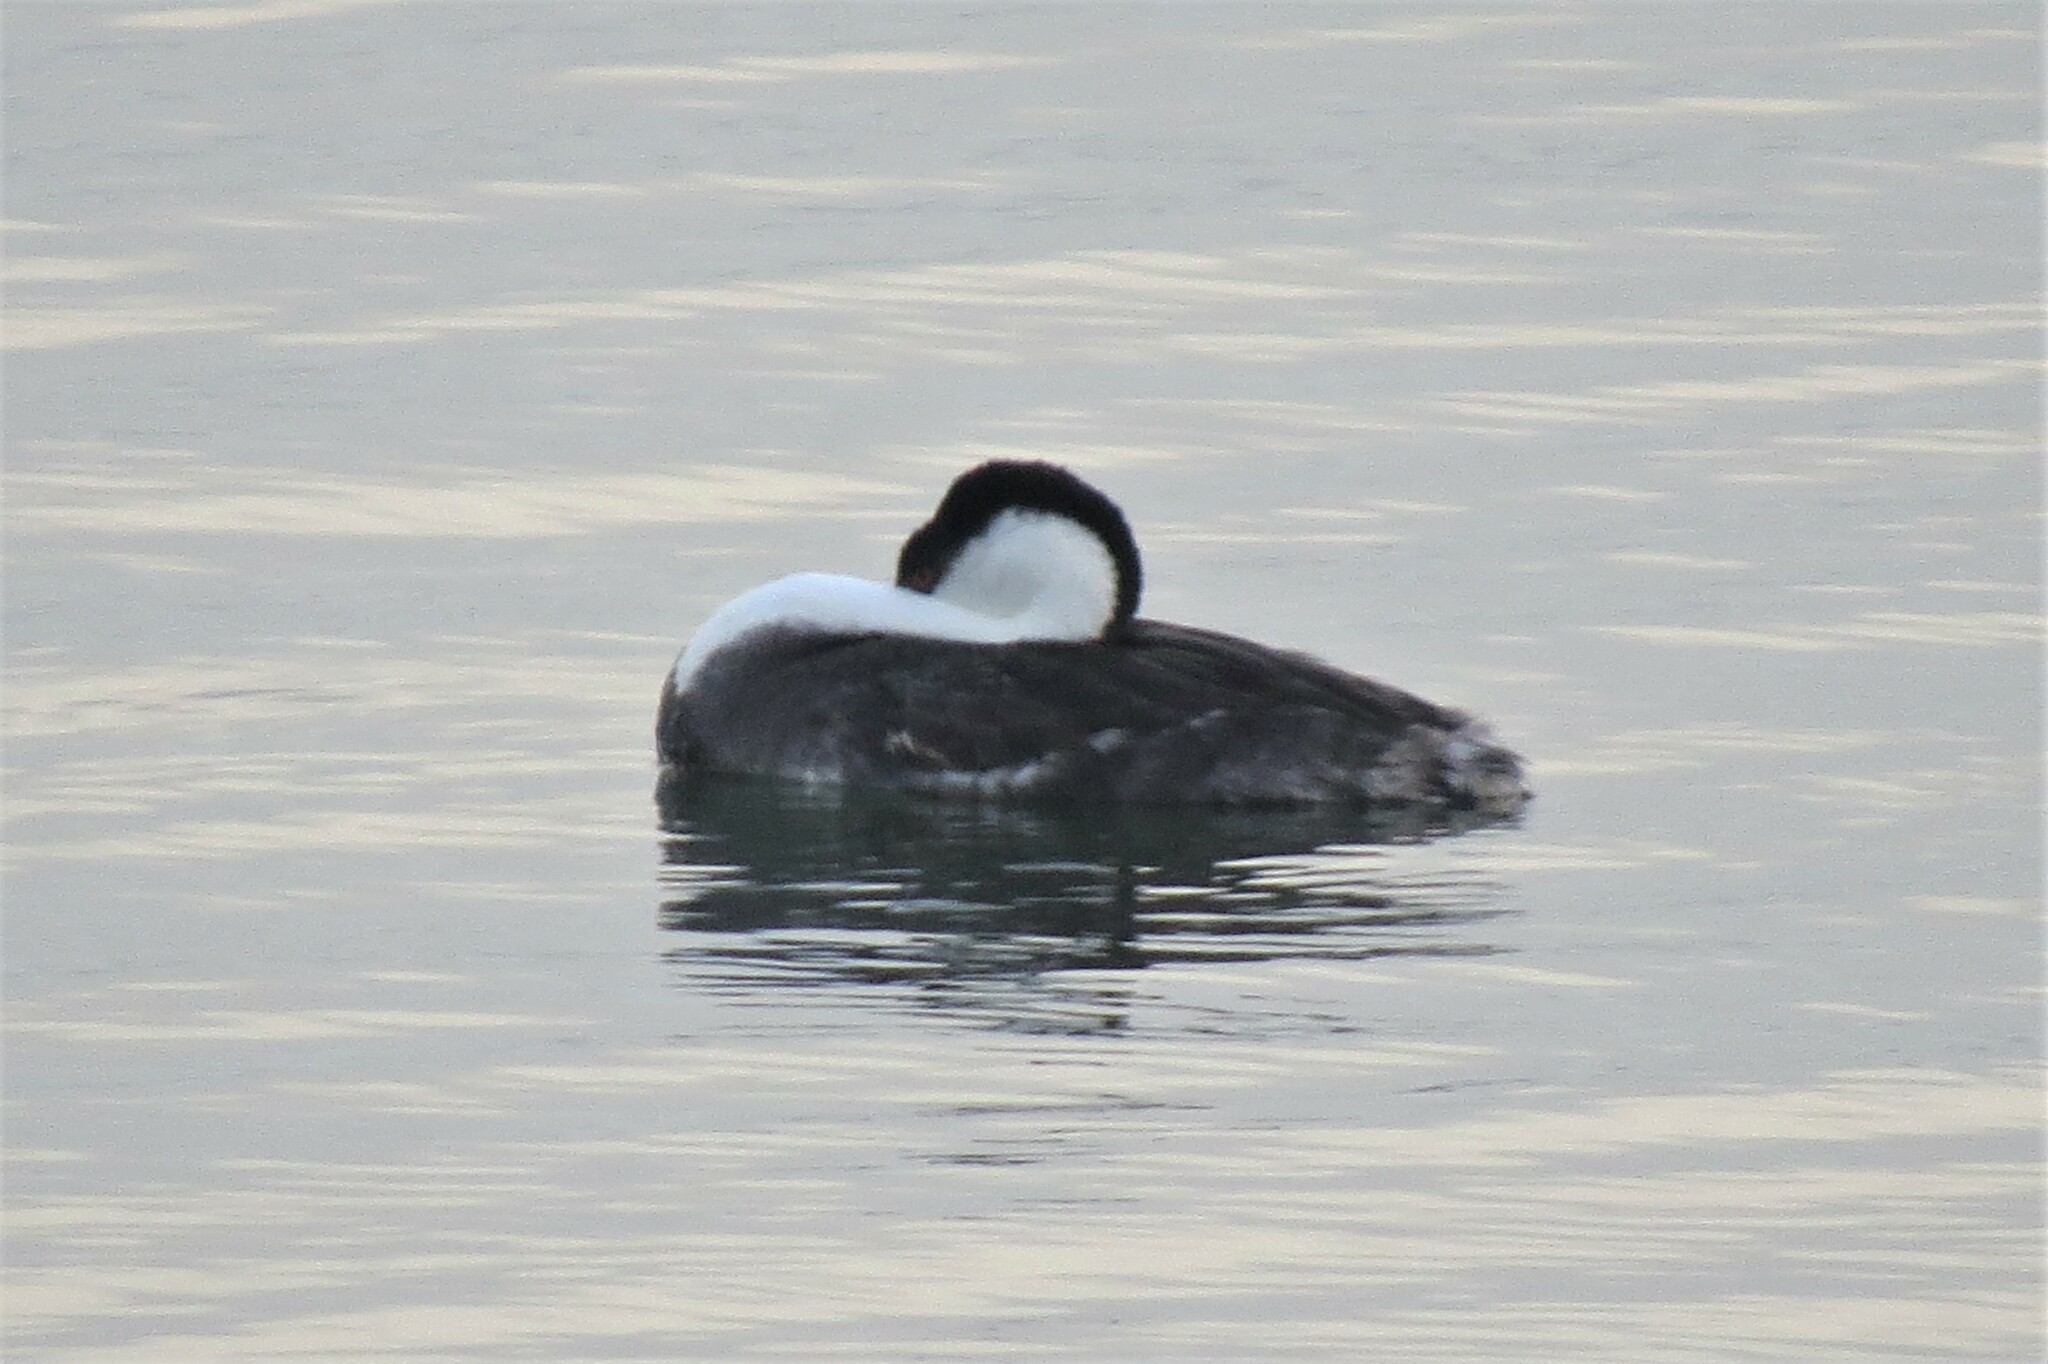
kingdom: Animalia
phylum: Chordata
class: Aves
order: Podicipediformes
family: Podicipedidae
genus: Aechmophorus
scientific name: Aechmophorus occidentalis
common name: Western grebe
